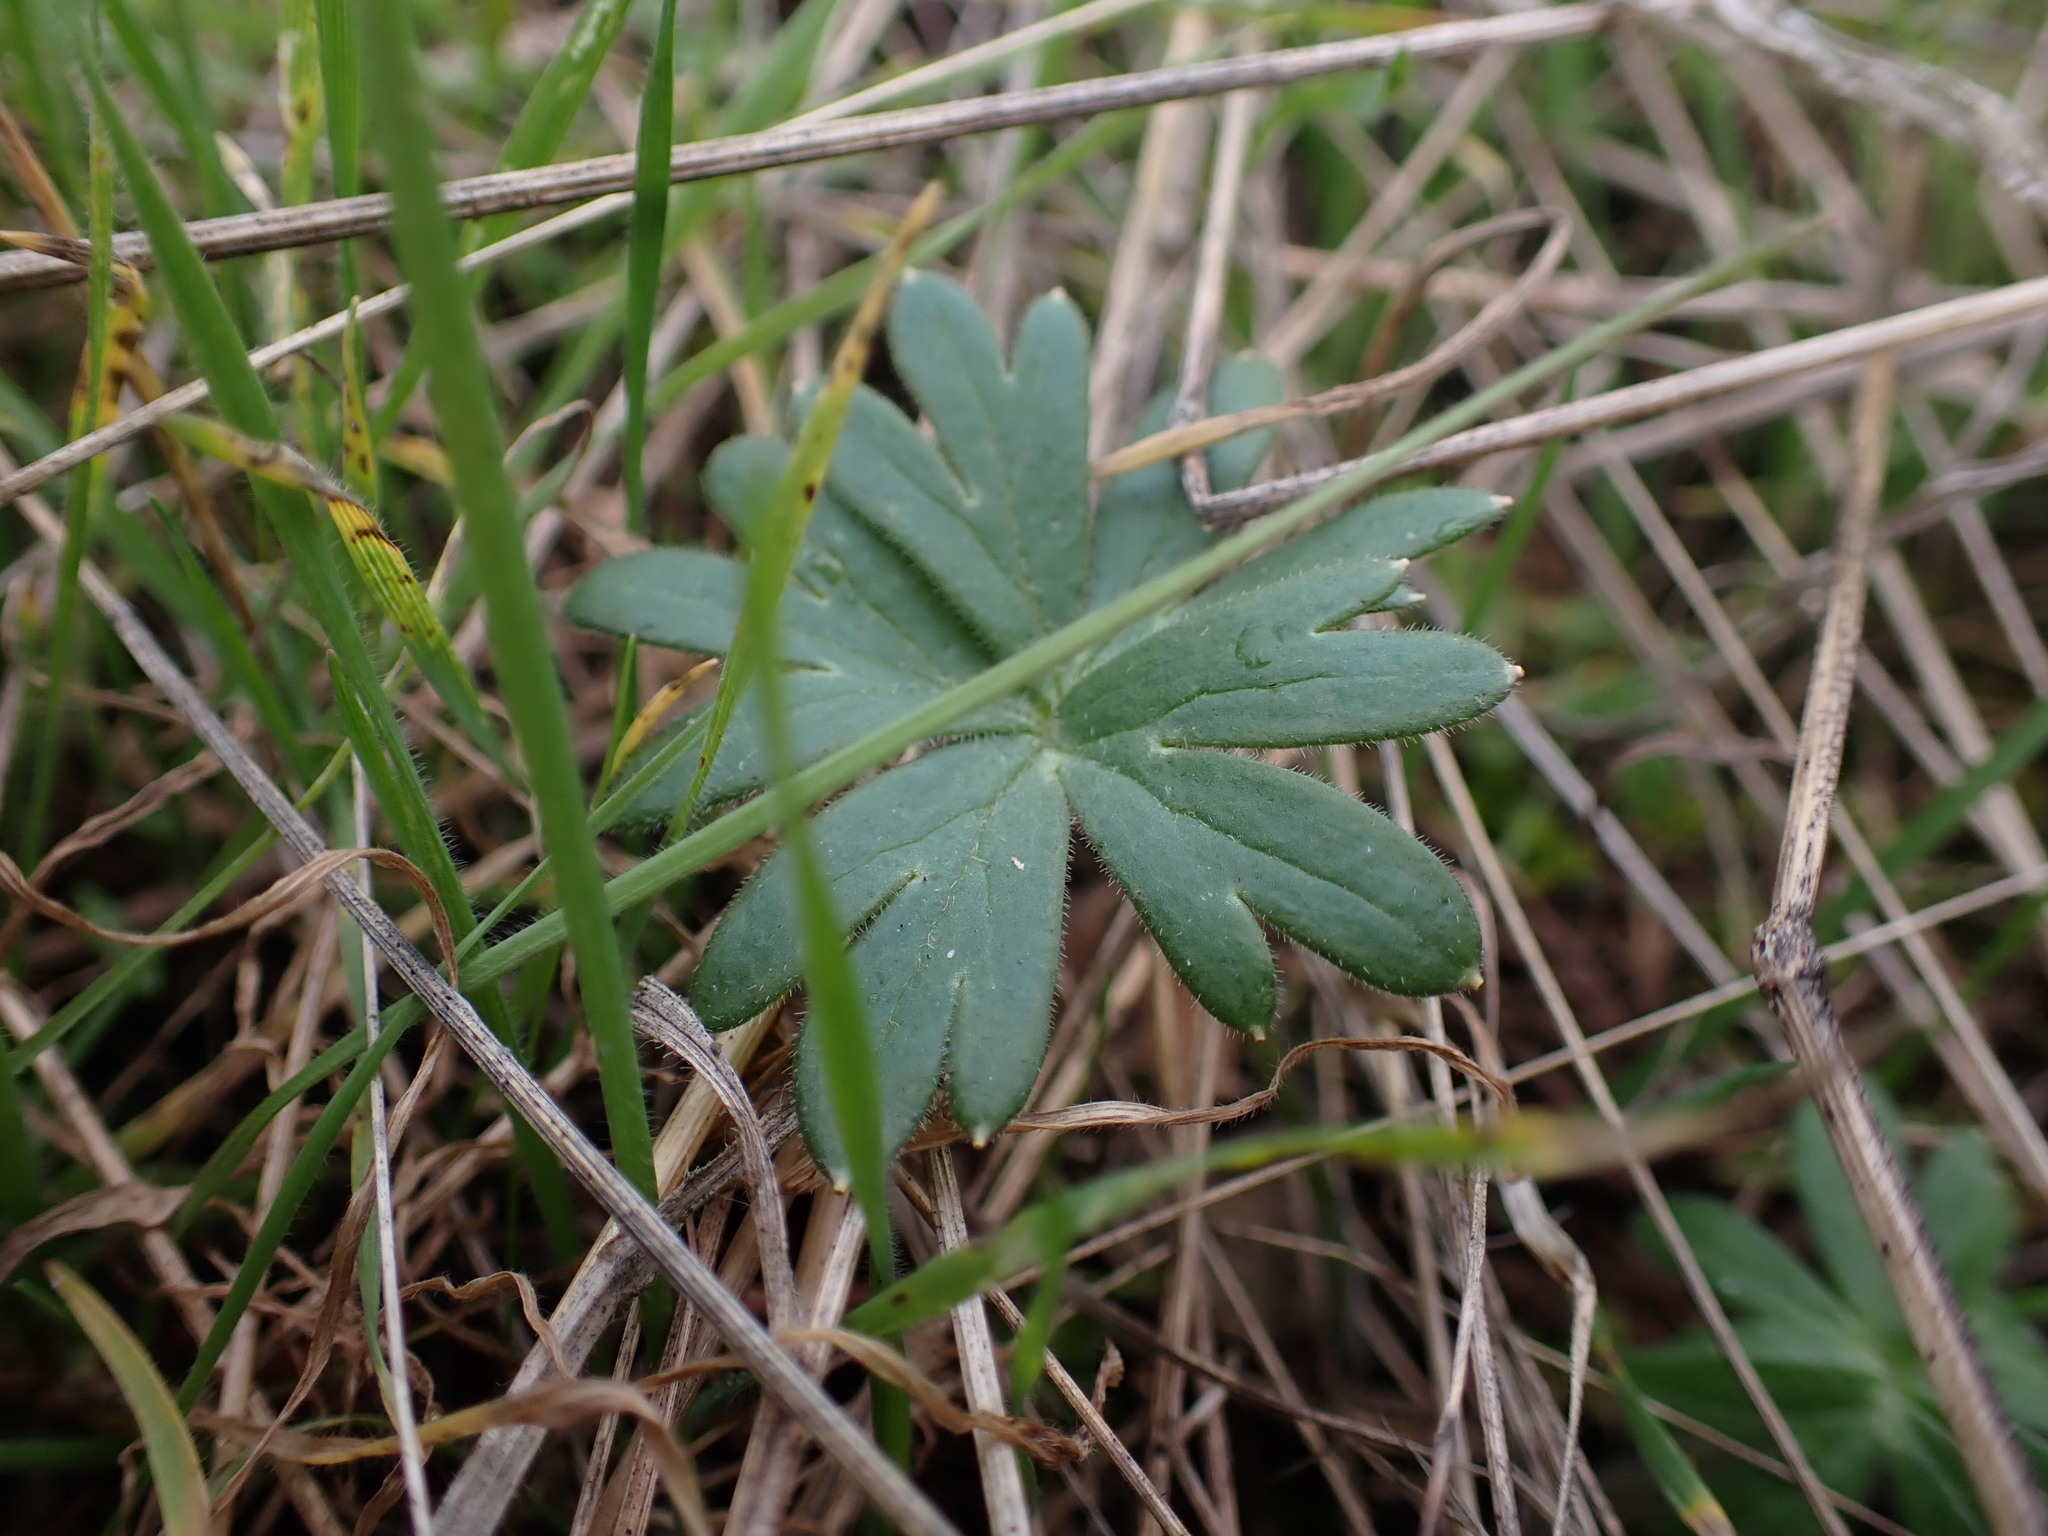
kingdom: Plantae
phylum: Tracheophyta
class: Magnoliopsida
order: Ranunculales
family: Ranunculaceae
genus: Delphinium
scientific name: Delphinium menziesii
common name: Menzies's larkspur
